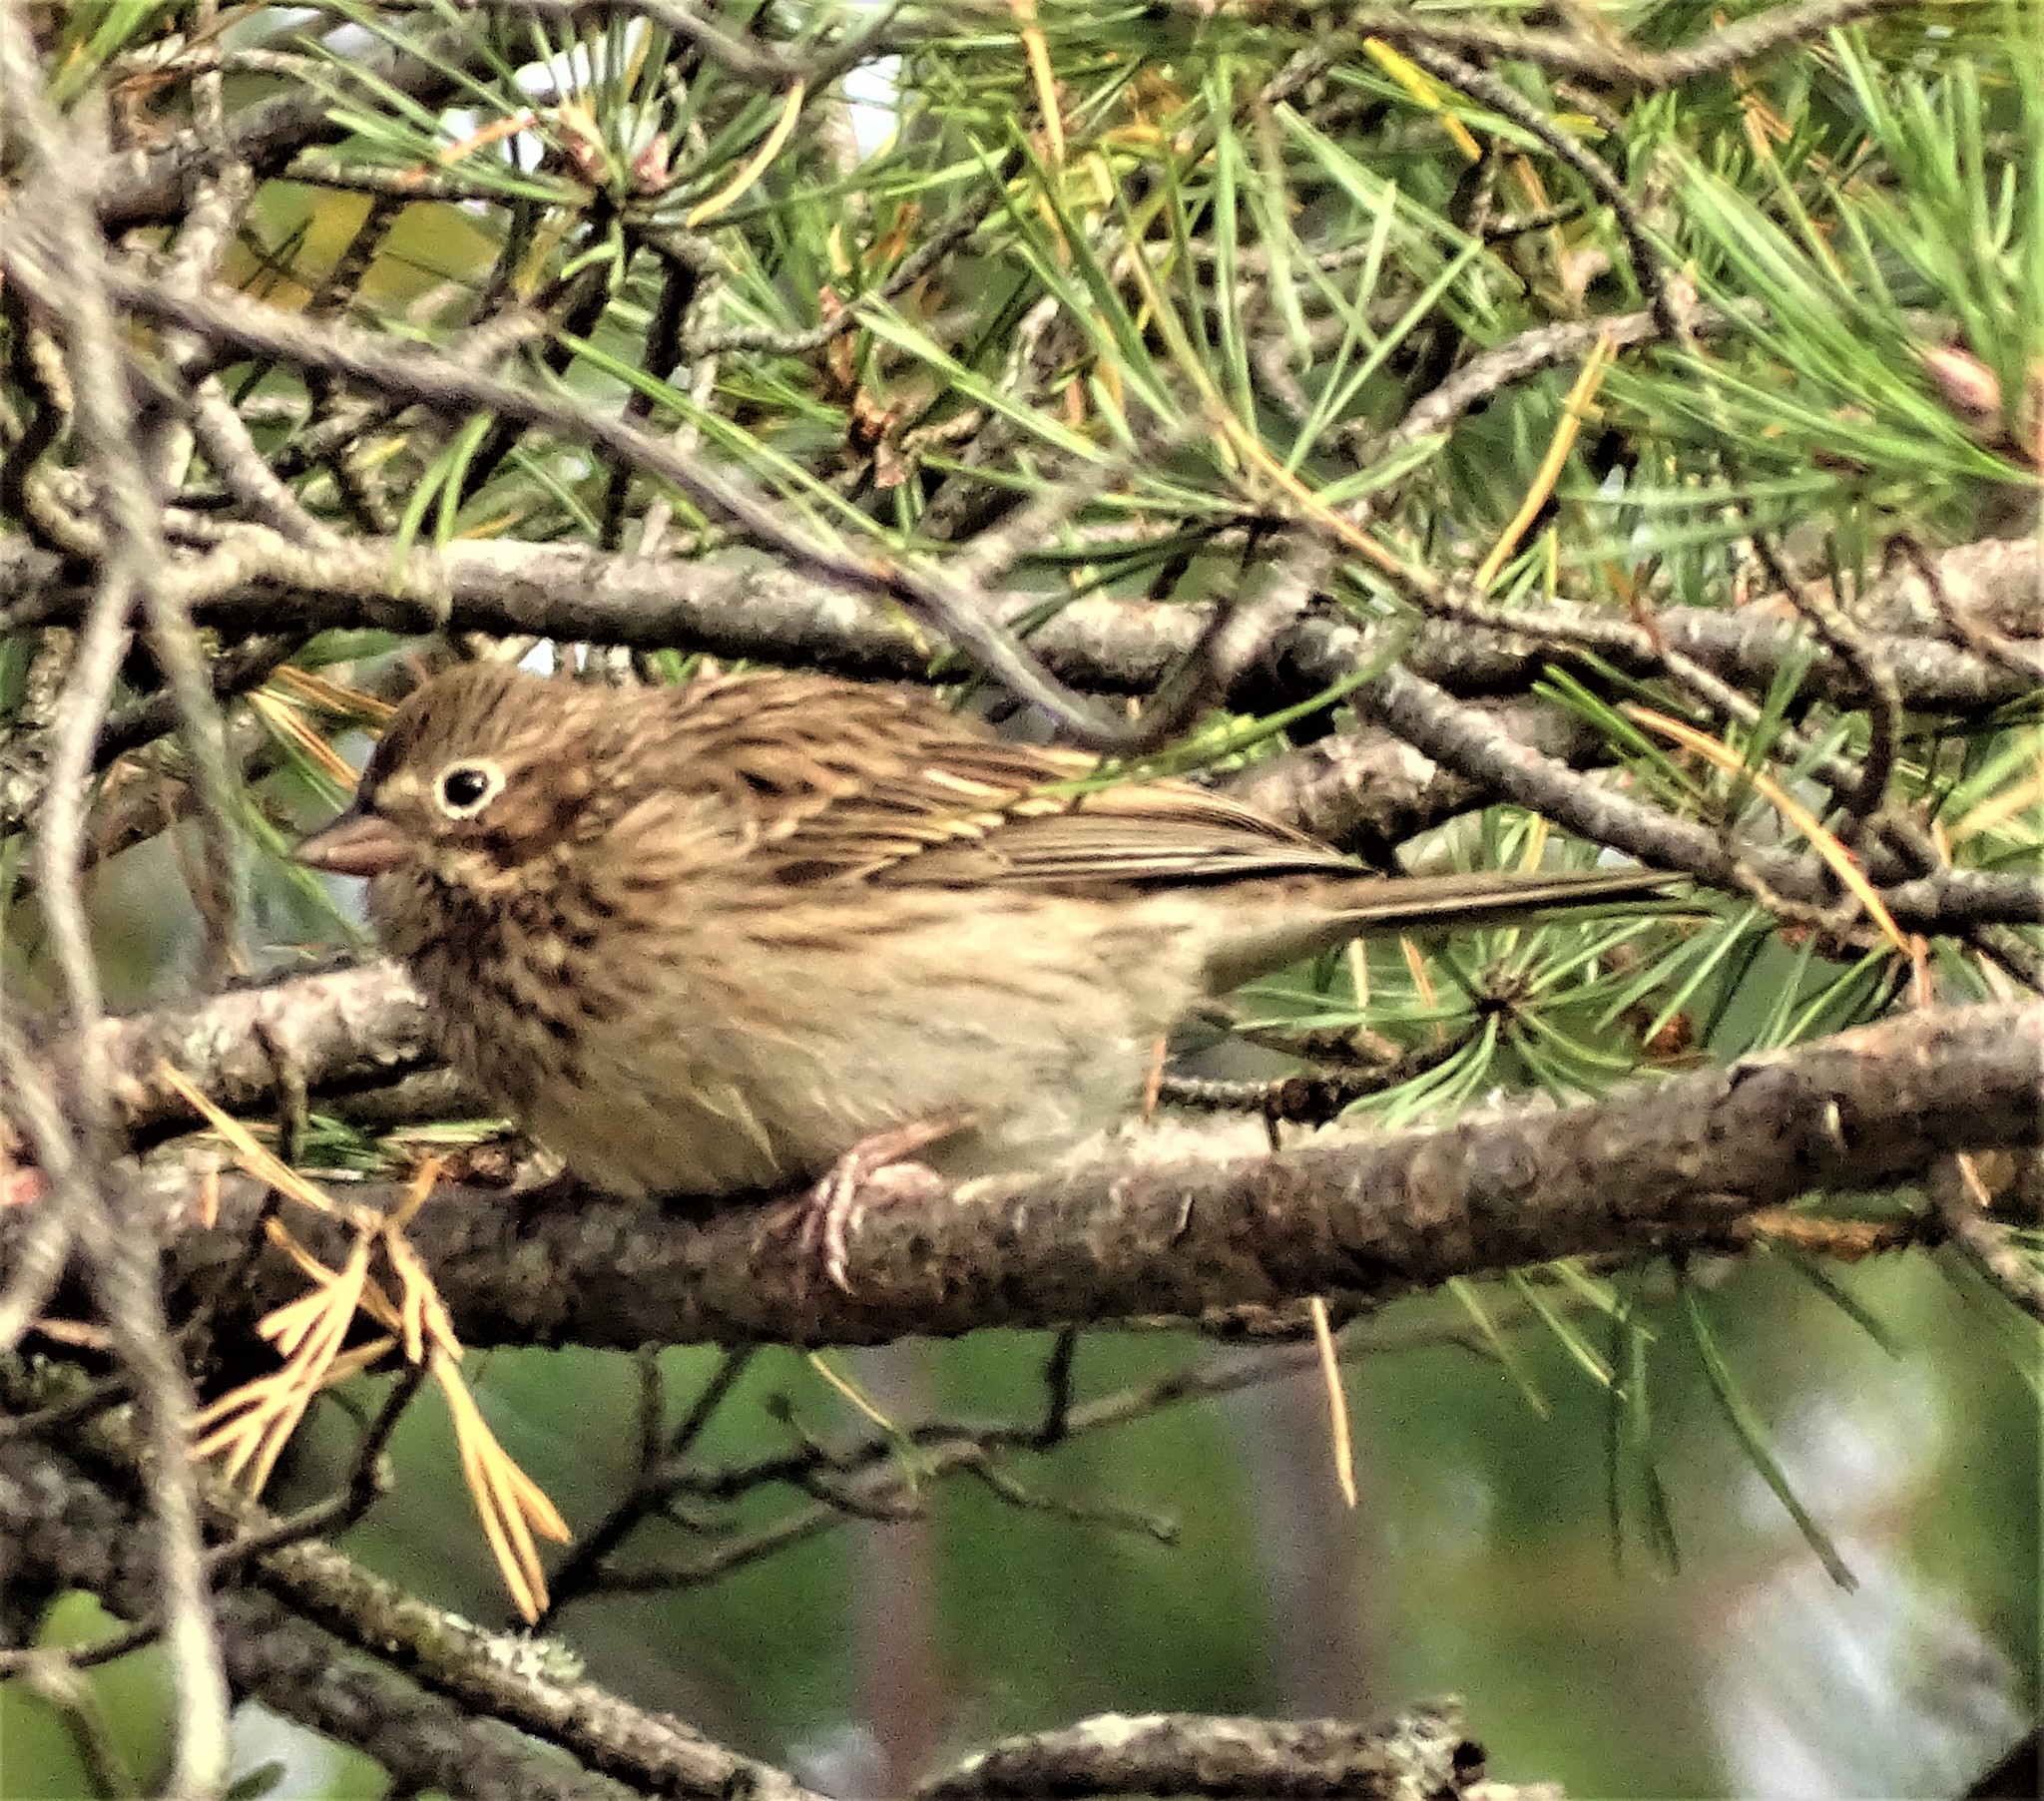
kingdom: Animalia
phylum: Chordata
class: Aves
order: Passeriformes
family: Passerellidae
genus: Pooecetes
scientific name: Pooecetes gramineus
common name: Vesper sparrow
